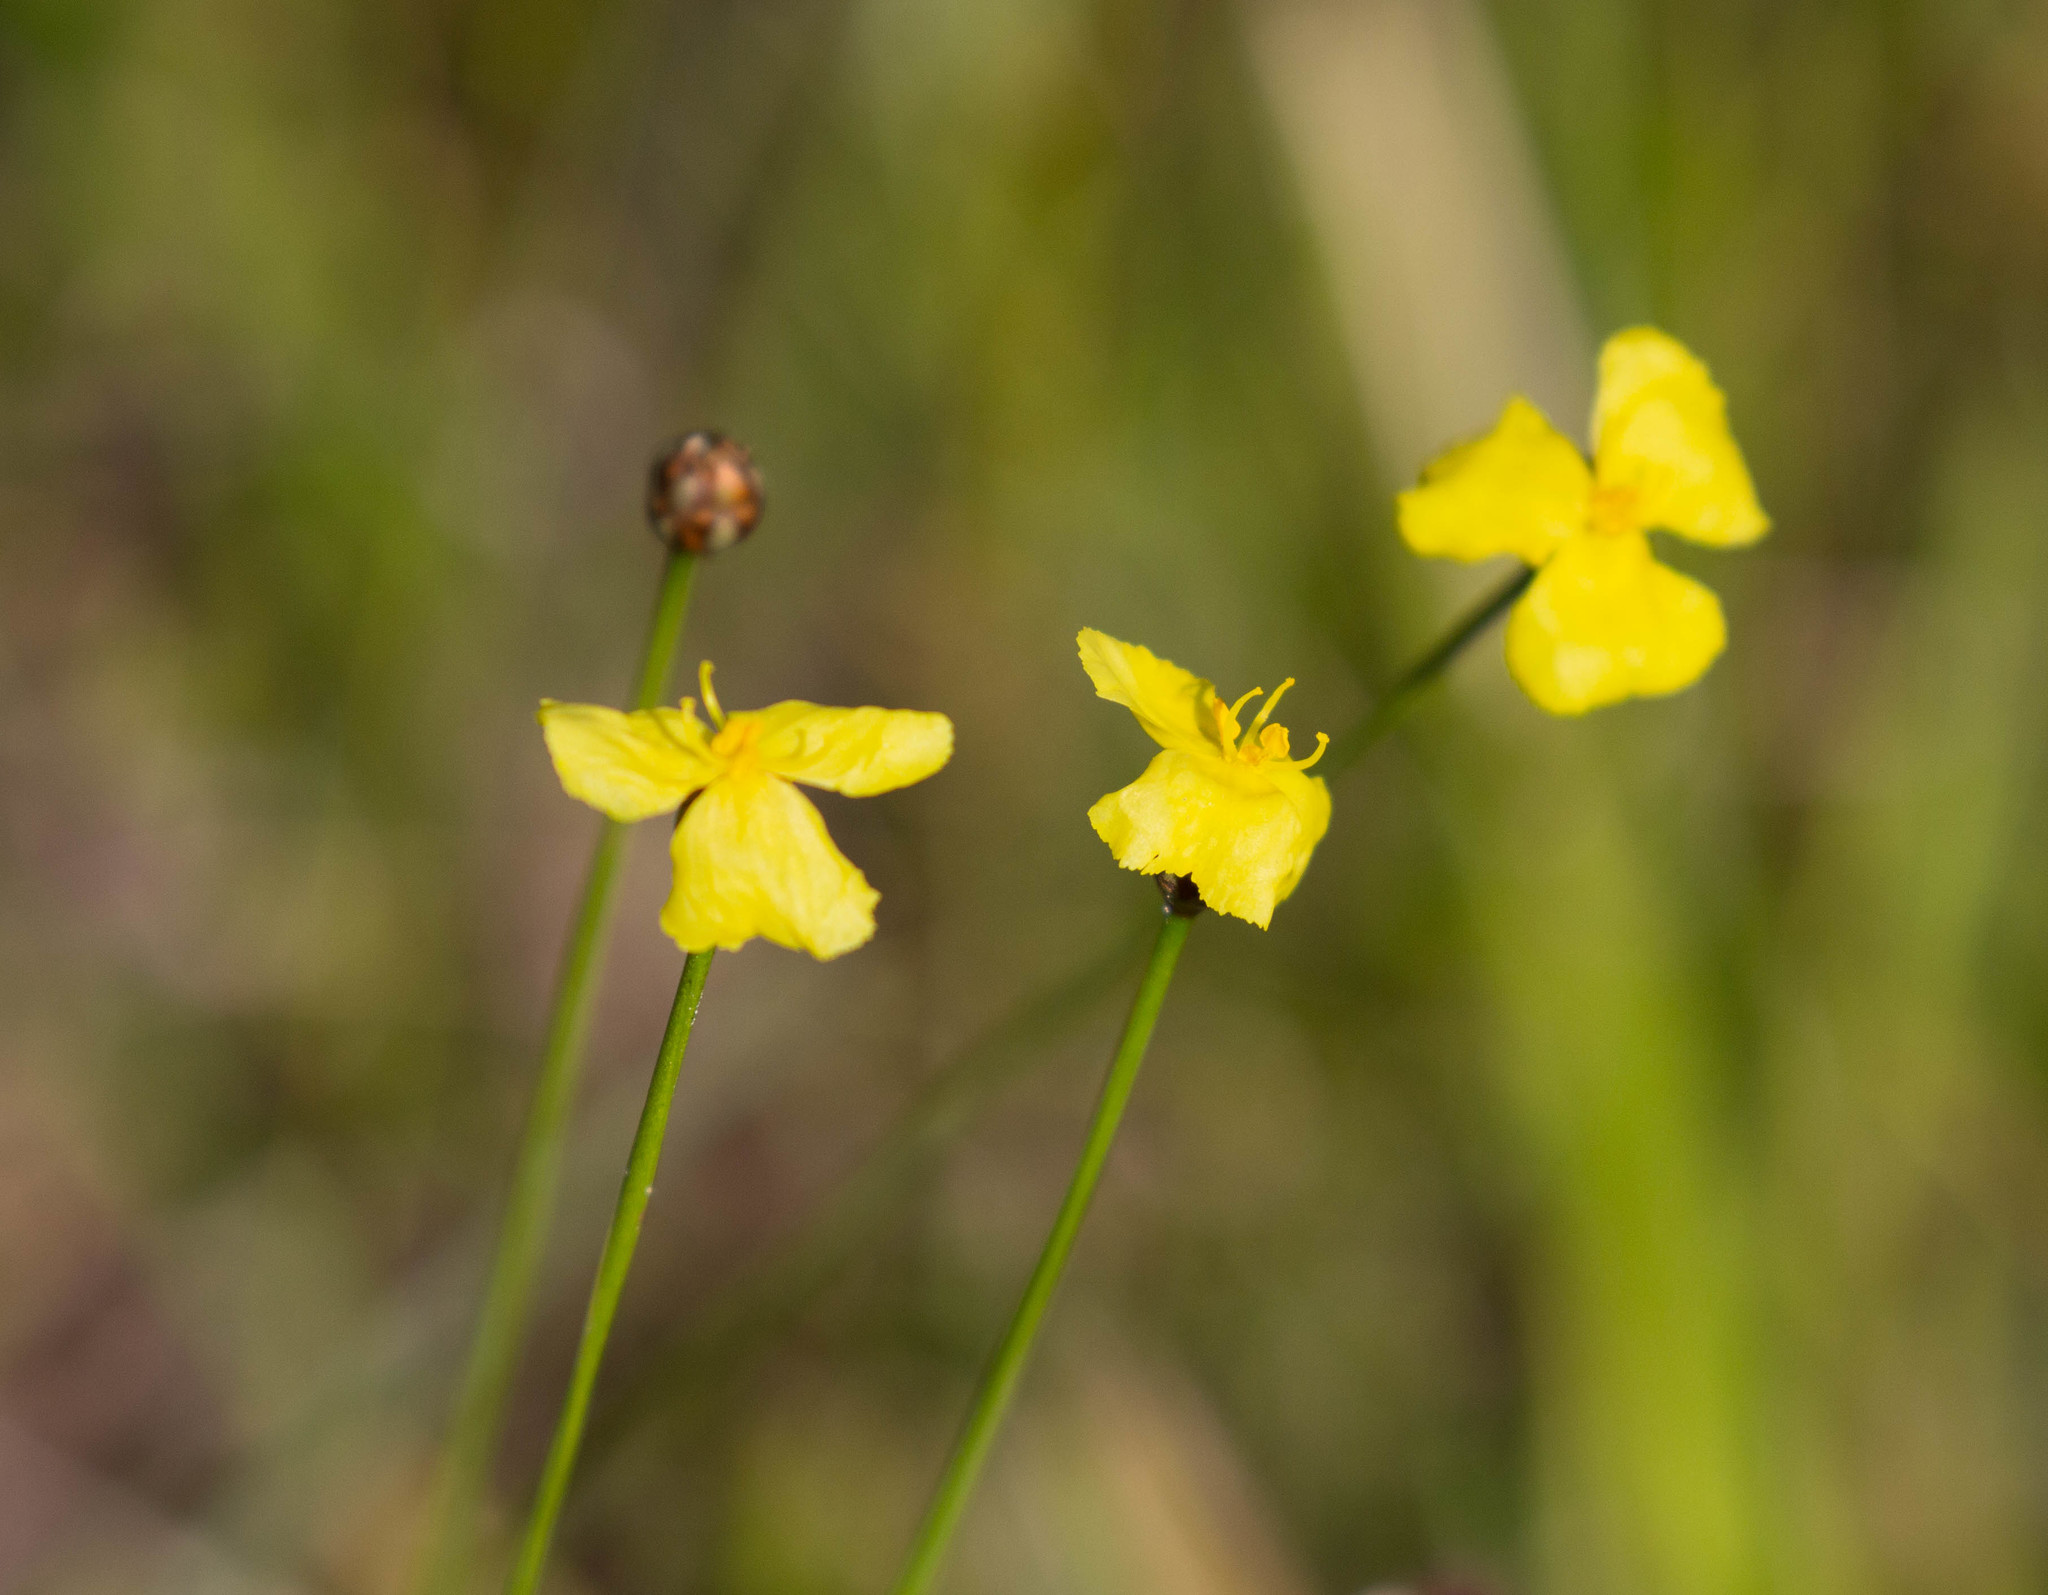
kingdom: Plantae
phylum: Tracheophyta
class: Liliopsida
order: Poales
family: Xyridaceae
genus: Xyris
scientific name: Xyris baldwiniana
